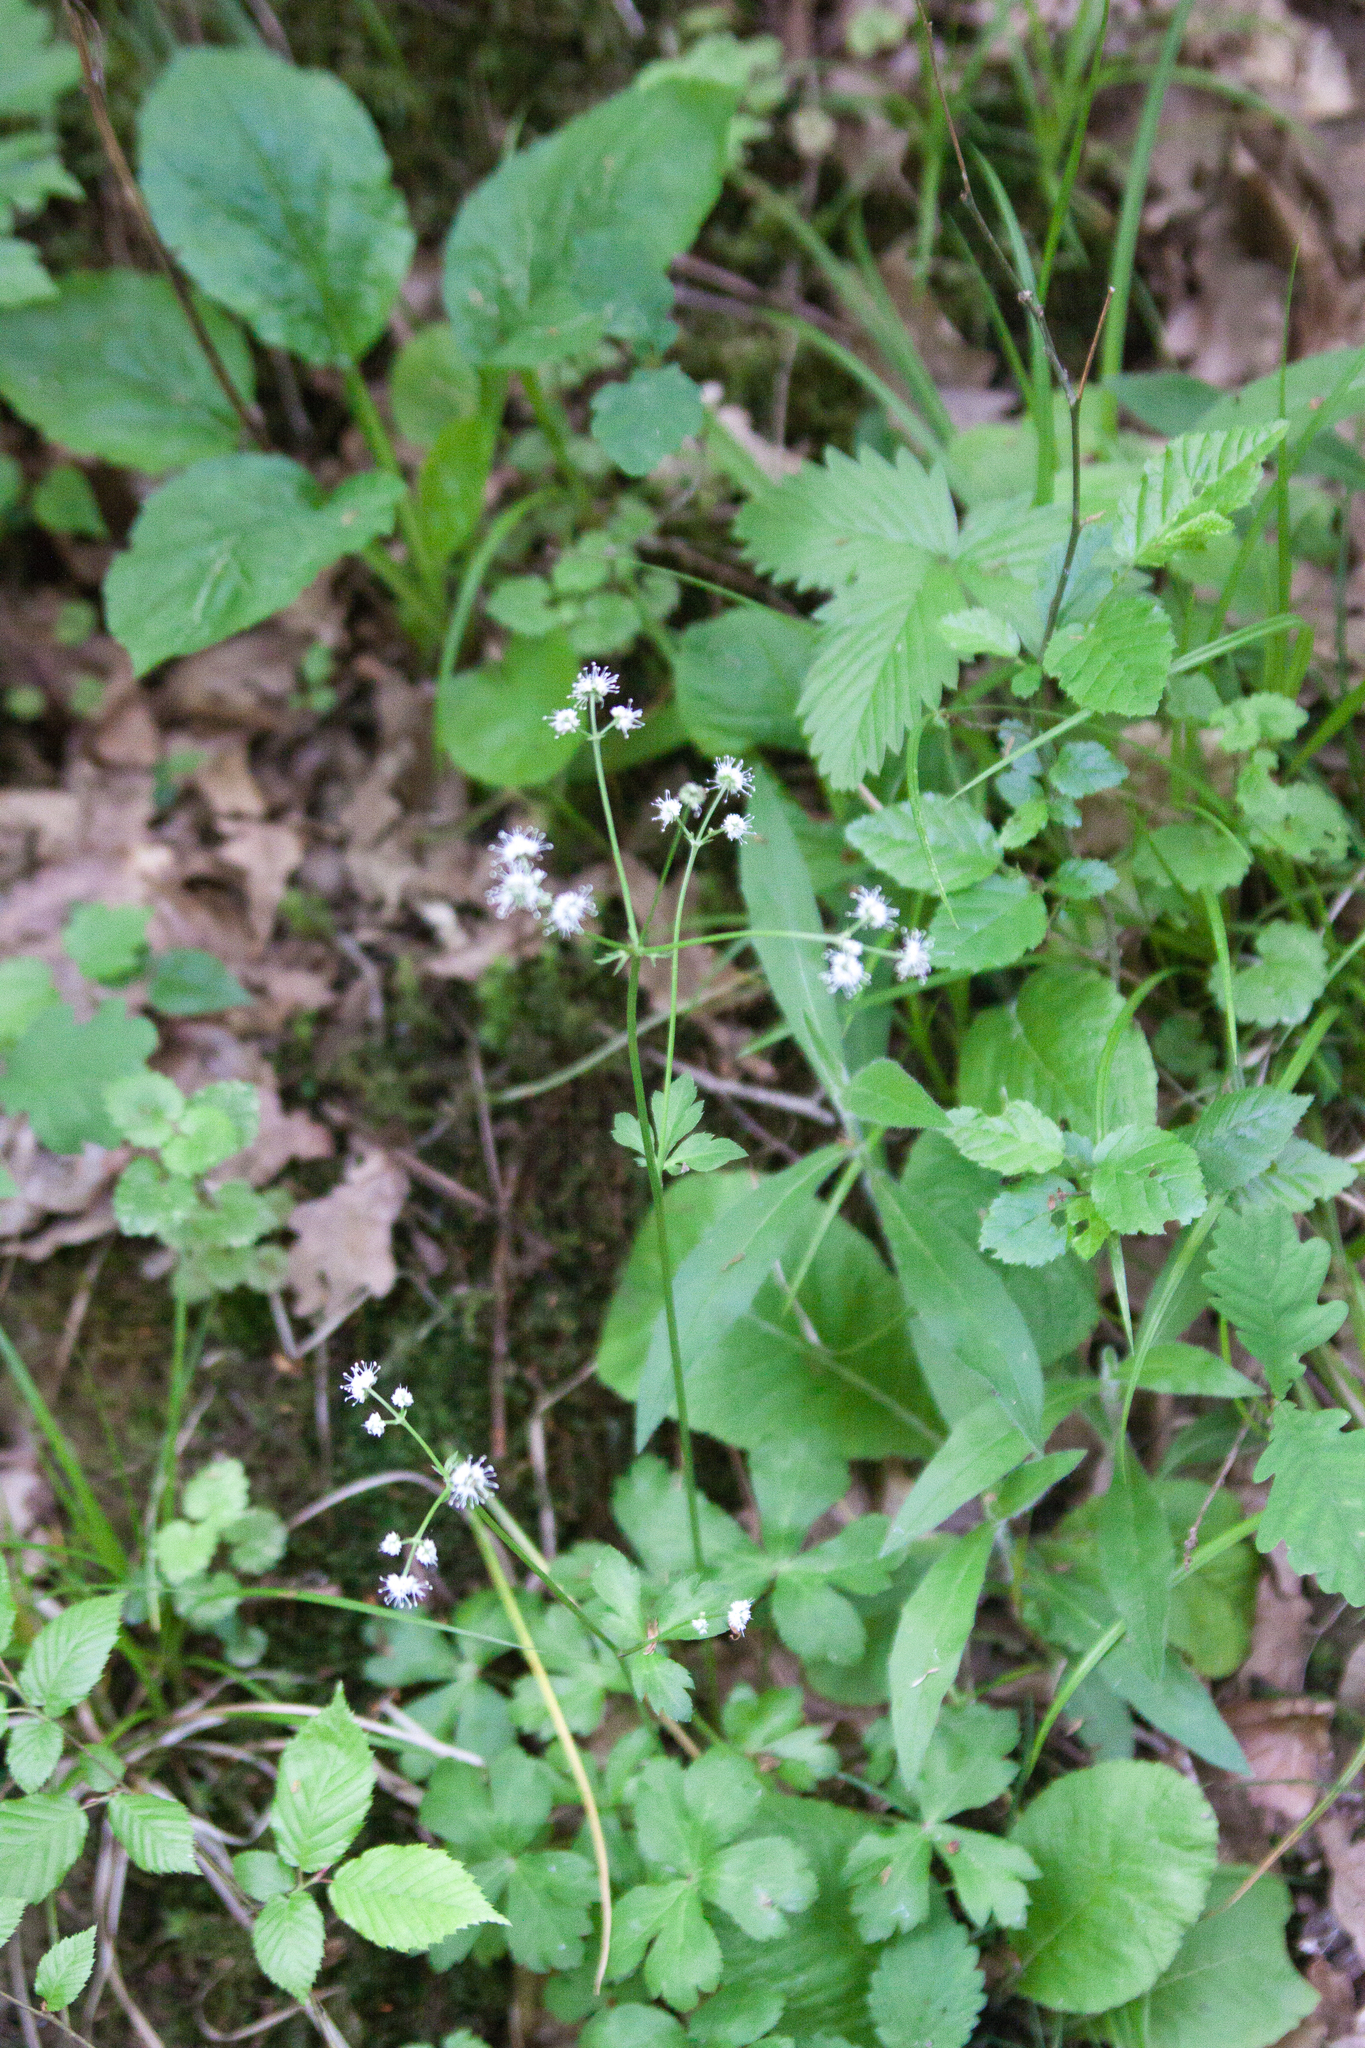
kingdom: Plantae
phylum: Tracheophyta
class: Magnoliopsida
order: Apiales
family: Apiaceae
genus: Sanicula
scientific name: Sanicula europaea
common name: Sanicle
